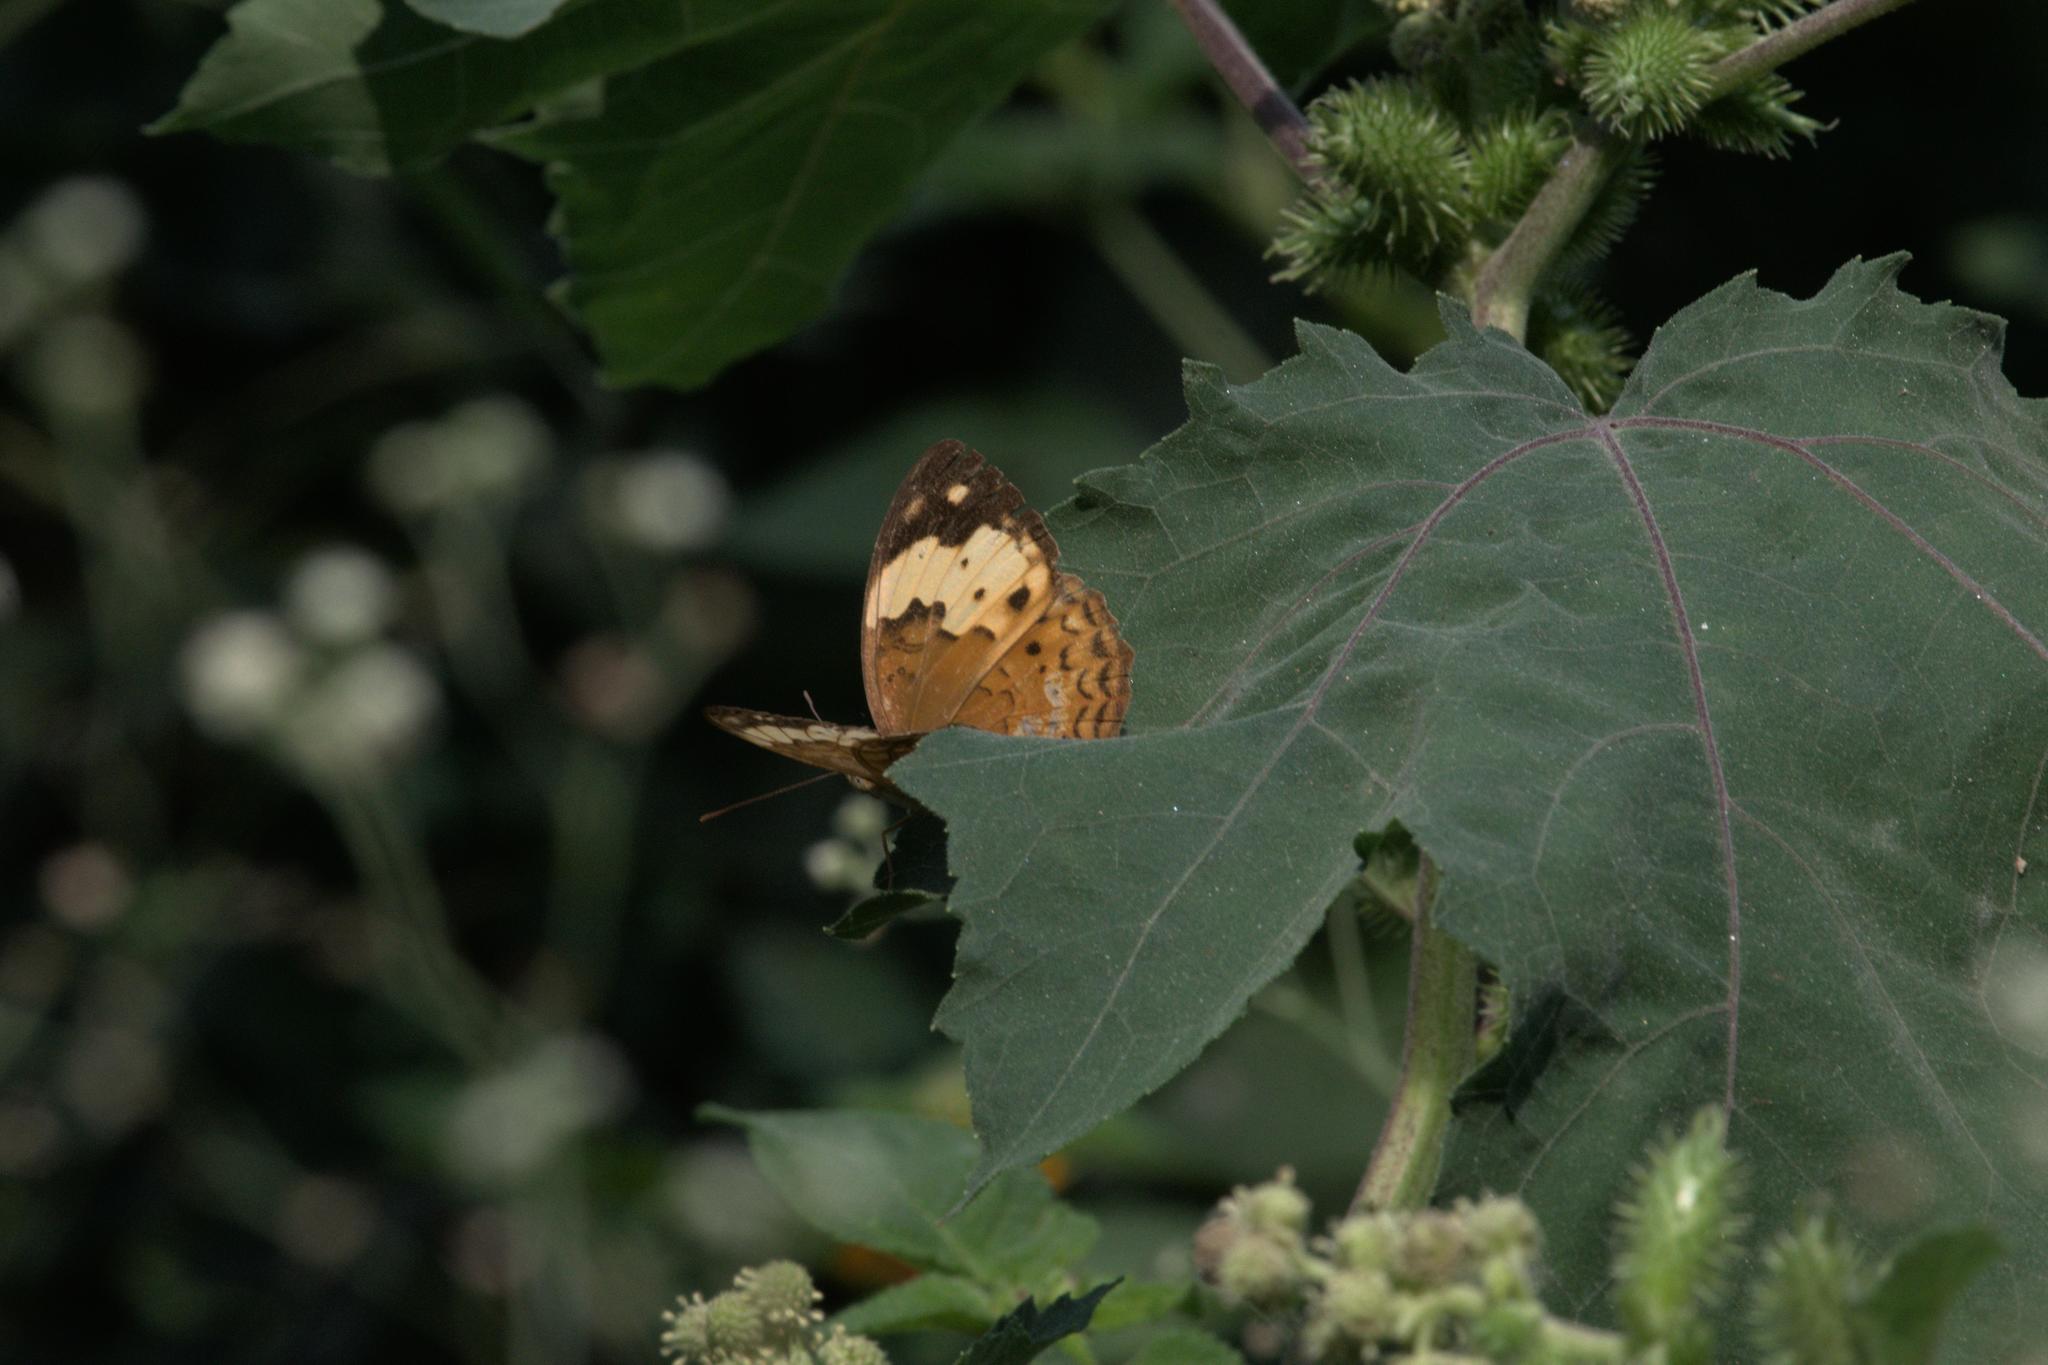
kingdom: Animalia
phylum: Arthropoda
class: Insecta
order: Lepidoptera
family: Nymphalidae
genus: Cupha
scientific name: Cupha erymanthis
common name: Rustic
